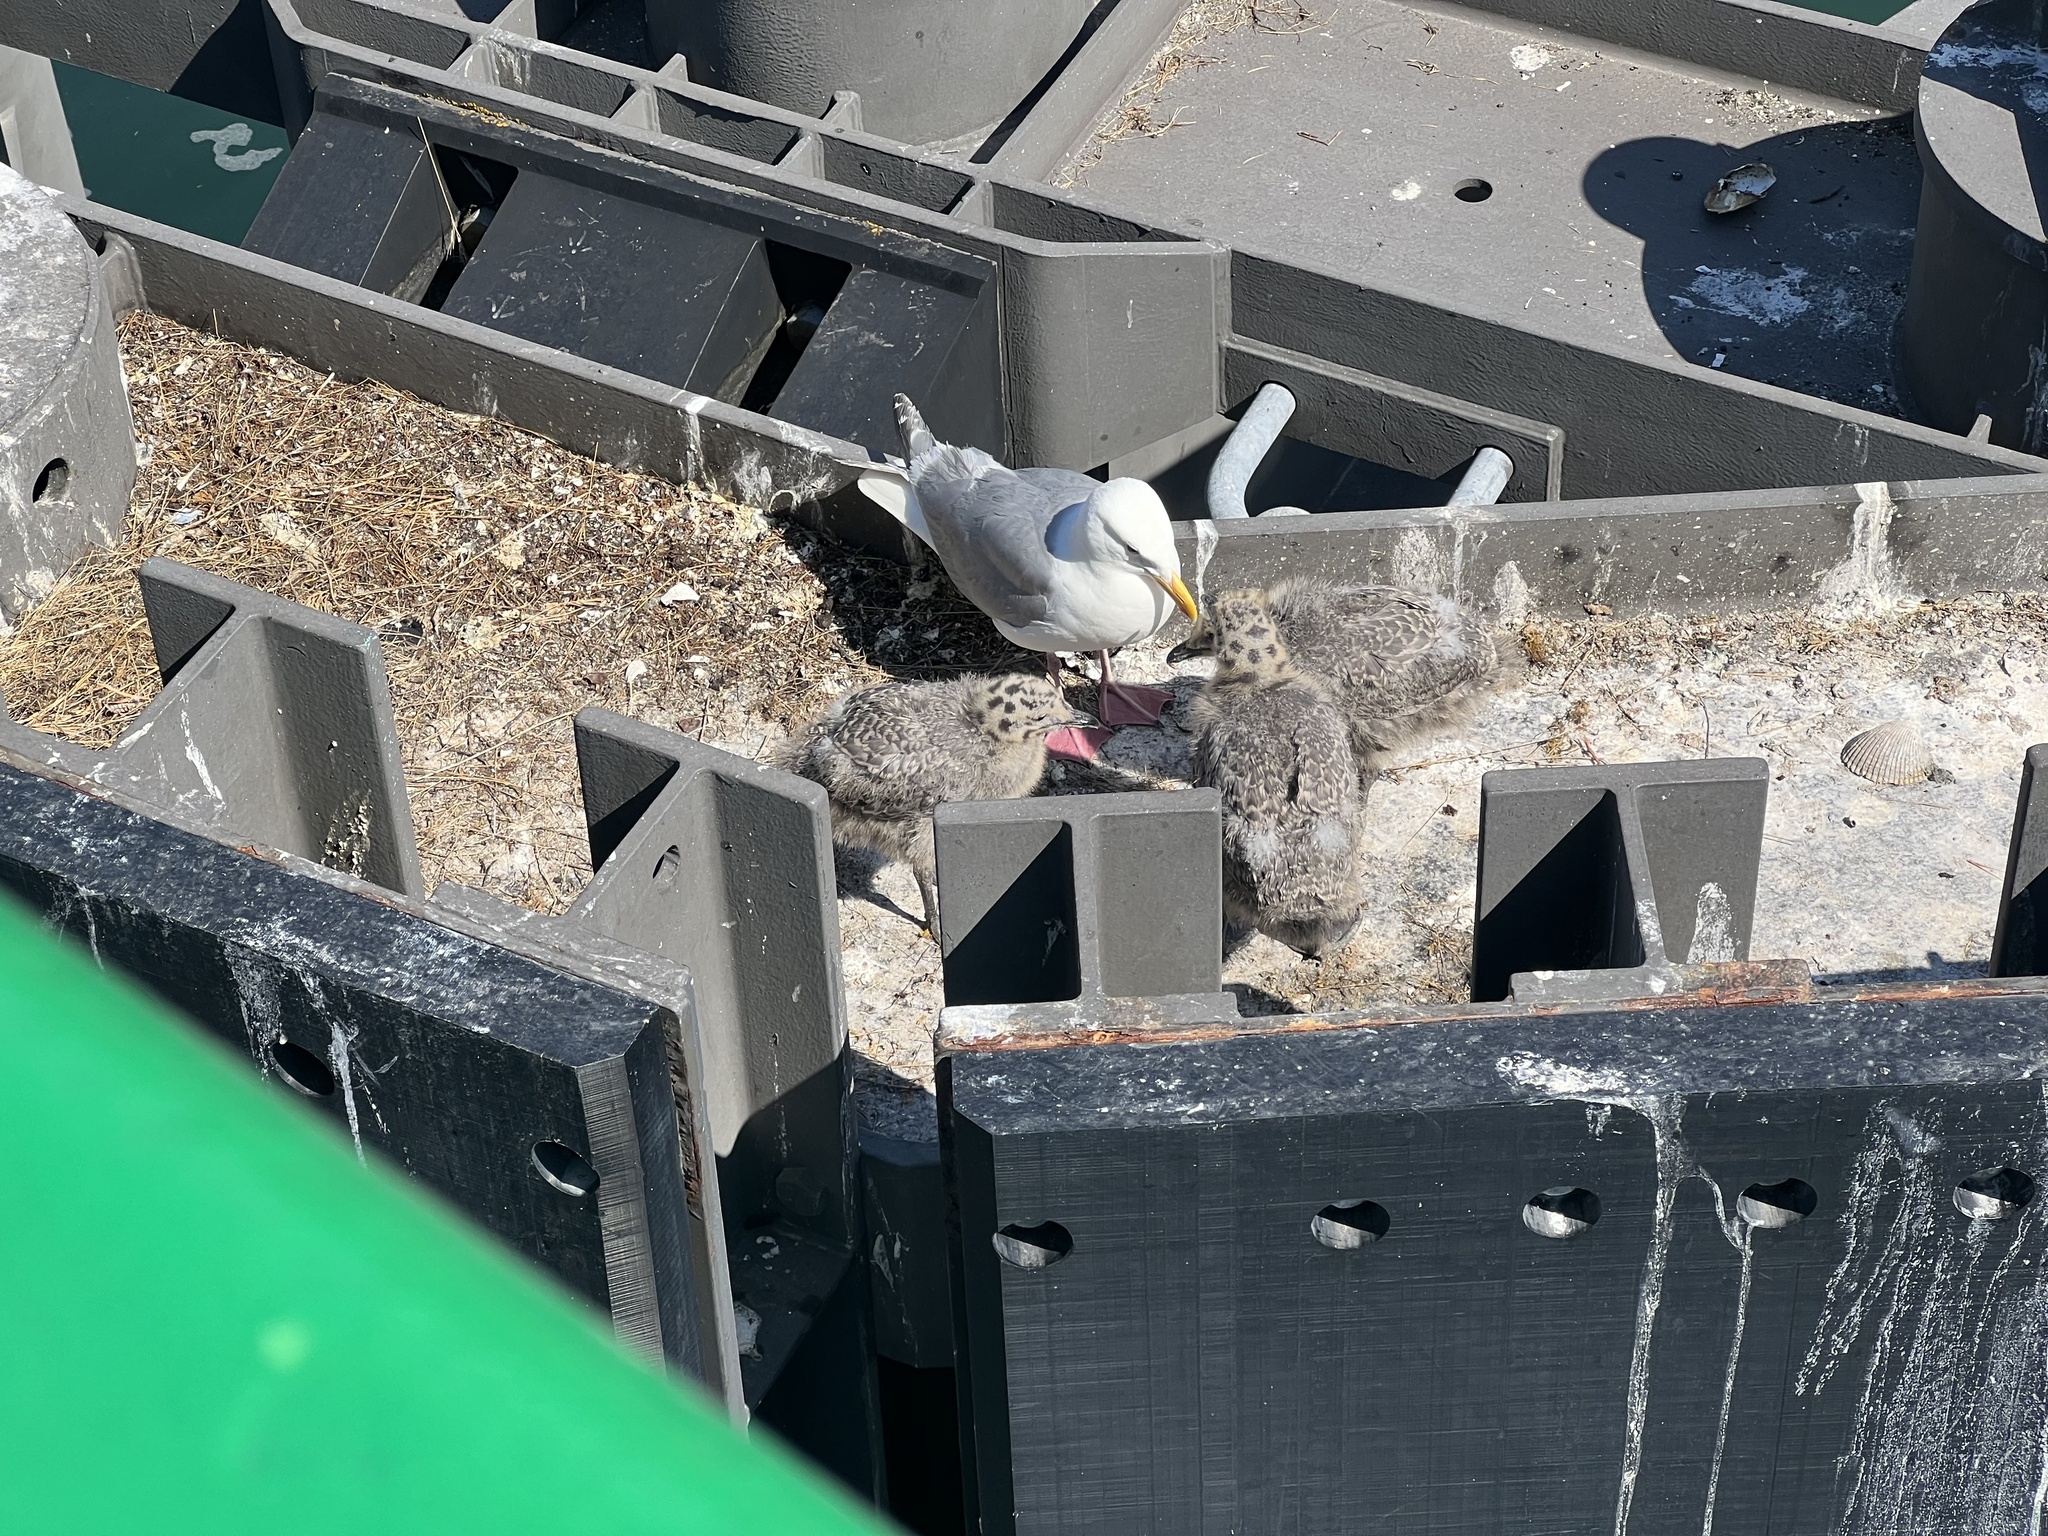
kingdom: Animalia
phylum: Chordata
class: Aves
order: Charadriiformes
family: Laridae
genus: Larus
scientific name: Larus glaucescens
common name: Glaucous-winged gull
